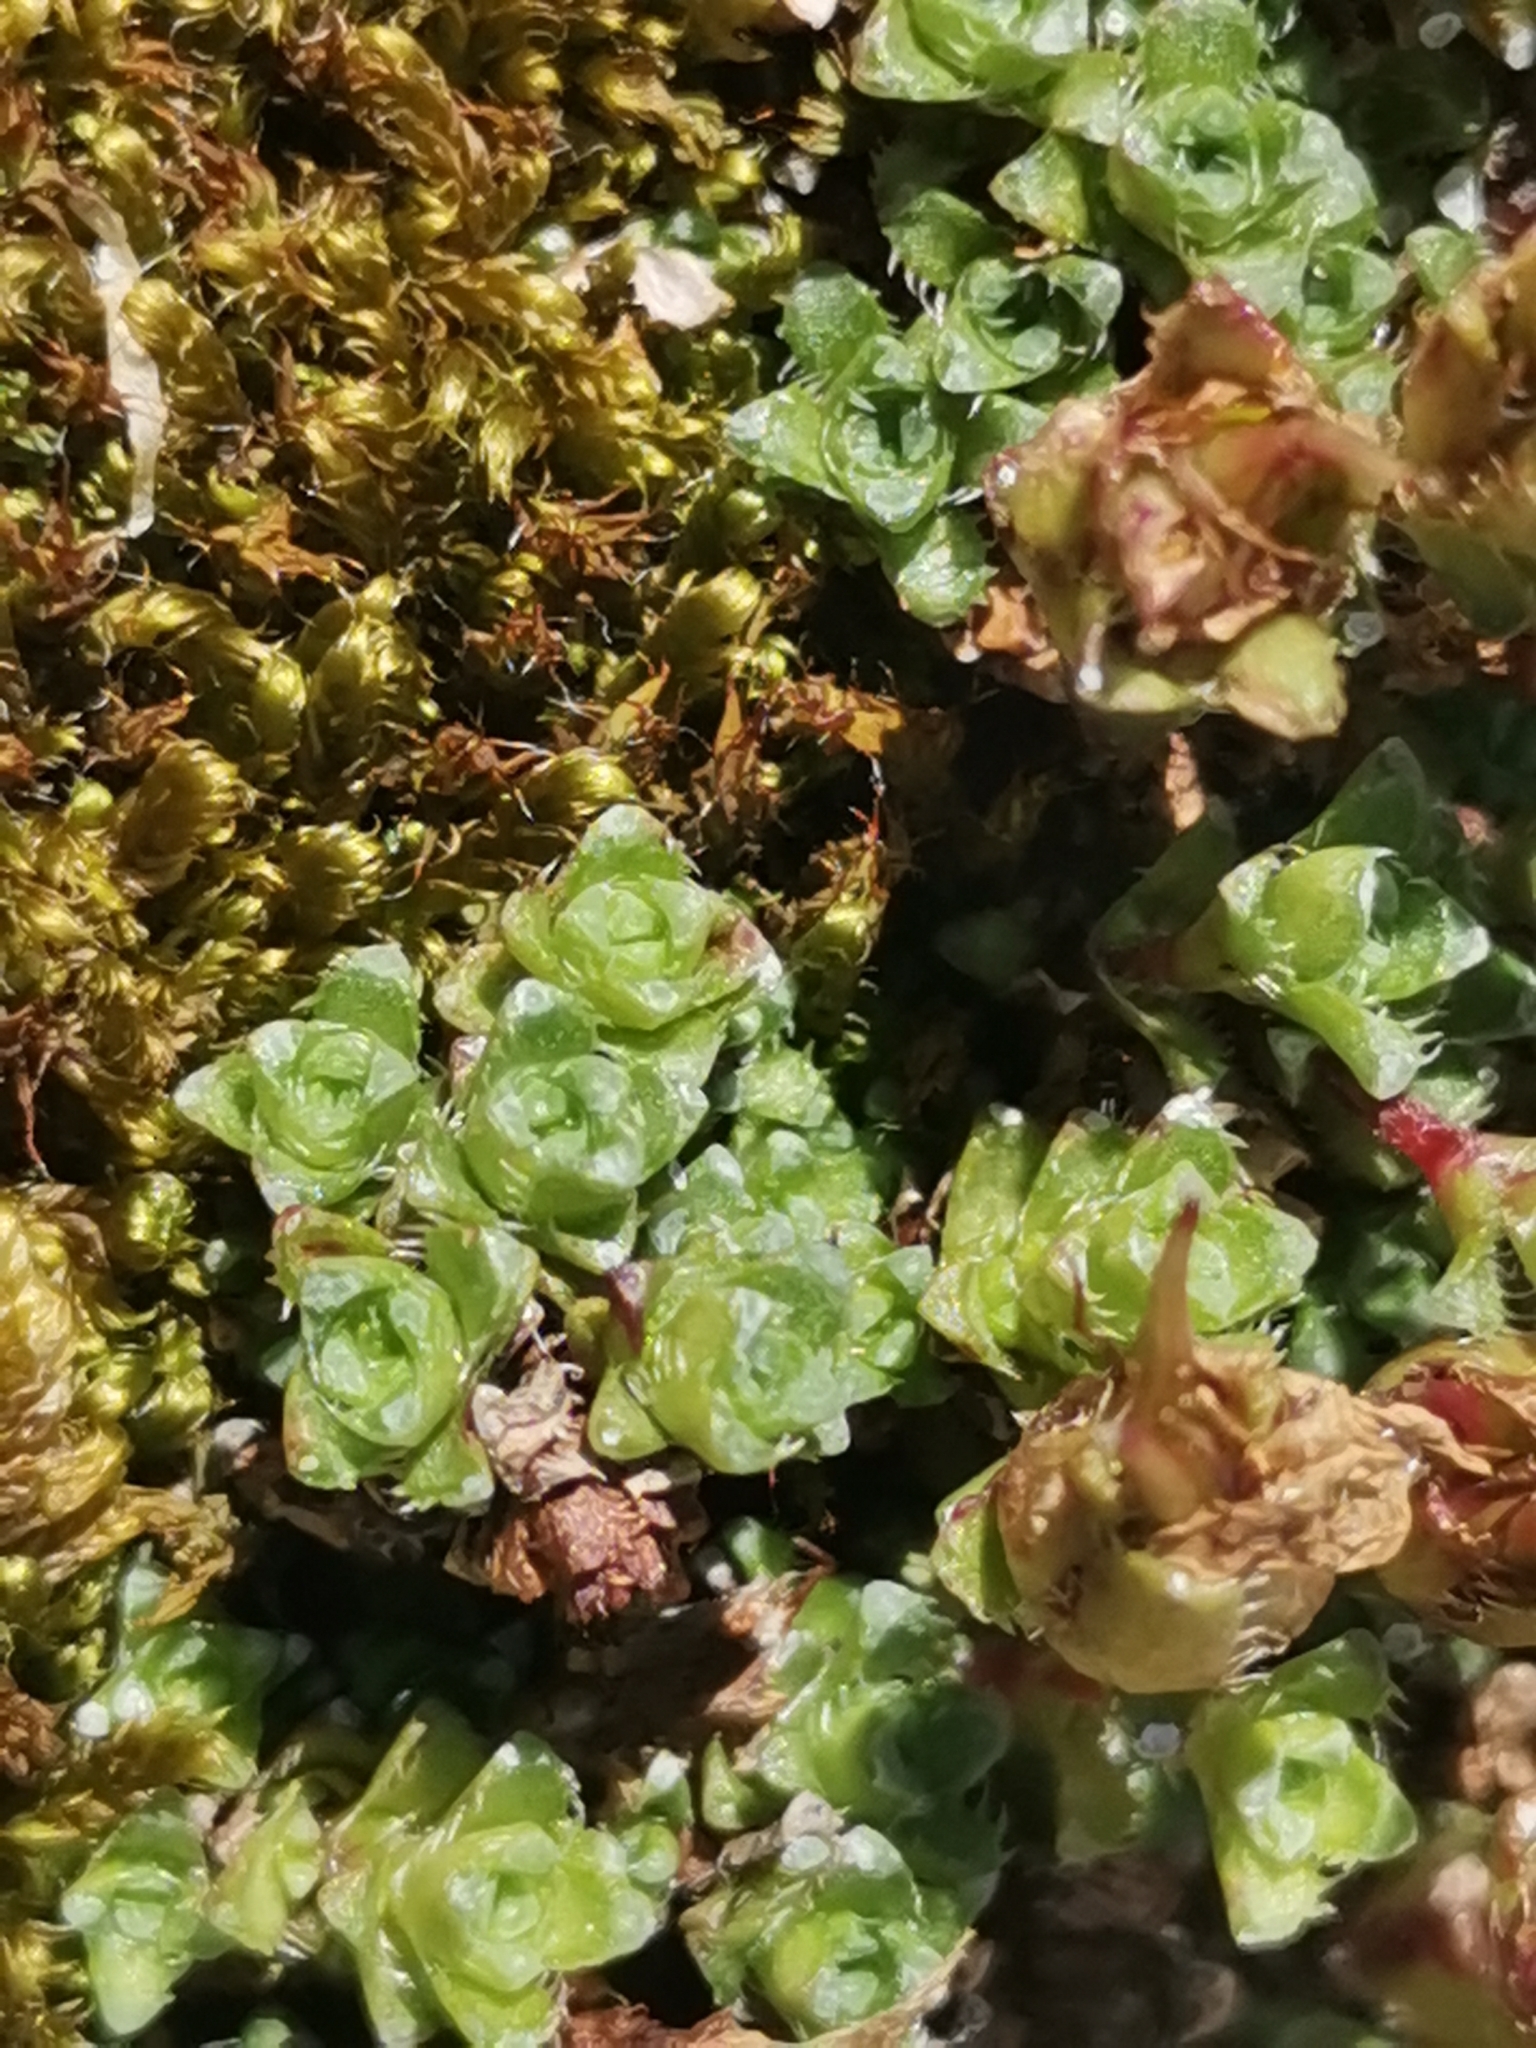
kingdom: Plantae
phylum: Tracheophyta
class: Magnoliopsida
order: Saxifragales
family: Saxifragaceae
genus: Saxifraga
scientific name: Saxifraga oppositifolia
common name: Purple saxifrage
